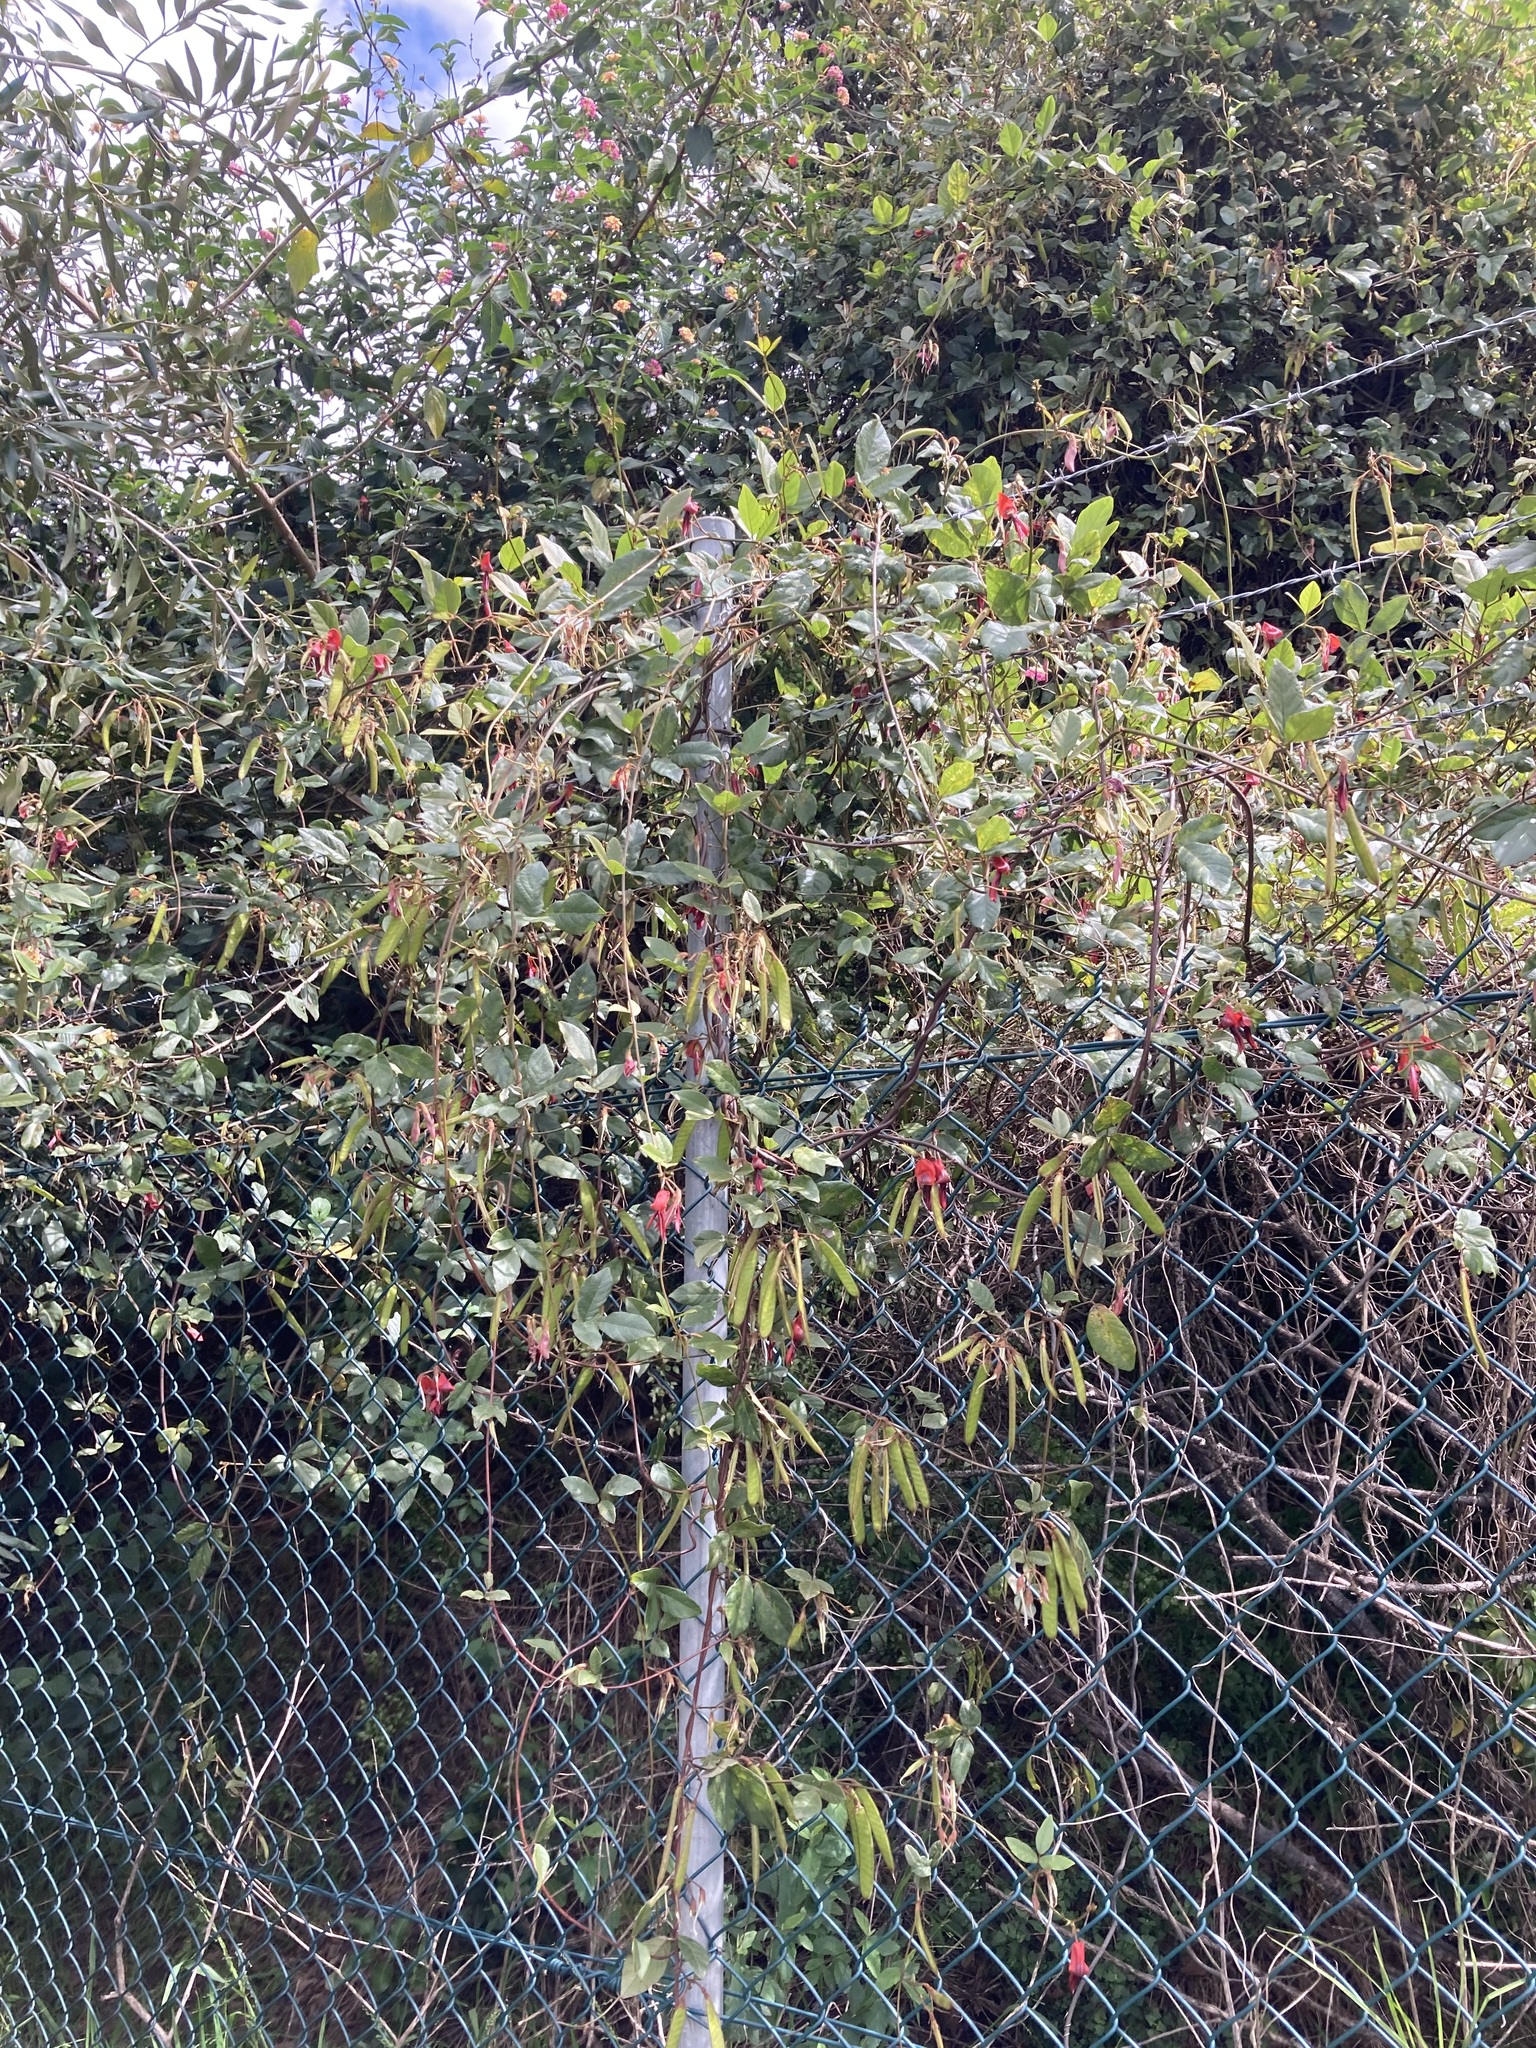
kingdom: Plantae
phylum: Tracheophyta
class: Magnoliopsida
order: Fabales
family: Fabaceae
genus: Kennedia
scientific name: Kennedia rubicunda
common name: Red kennedy-pea
